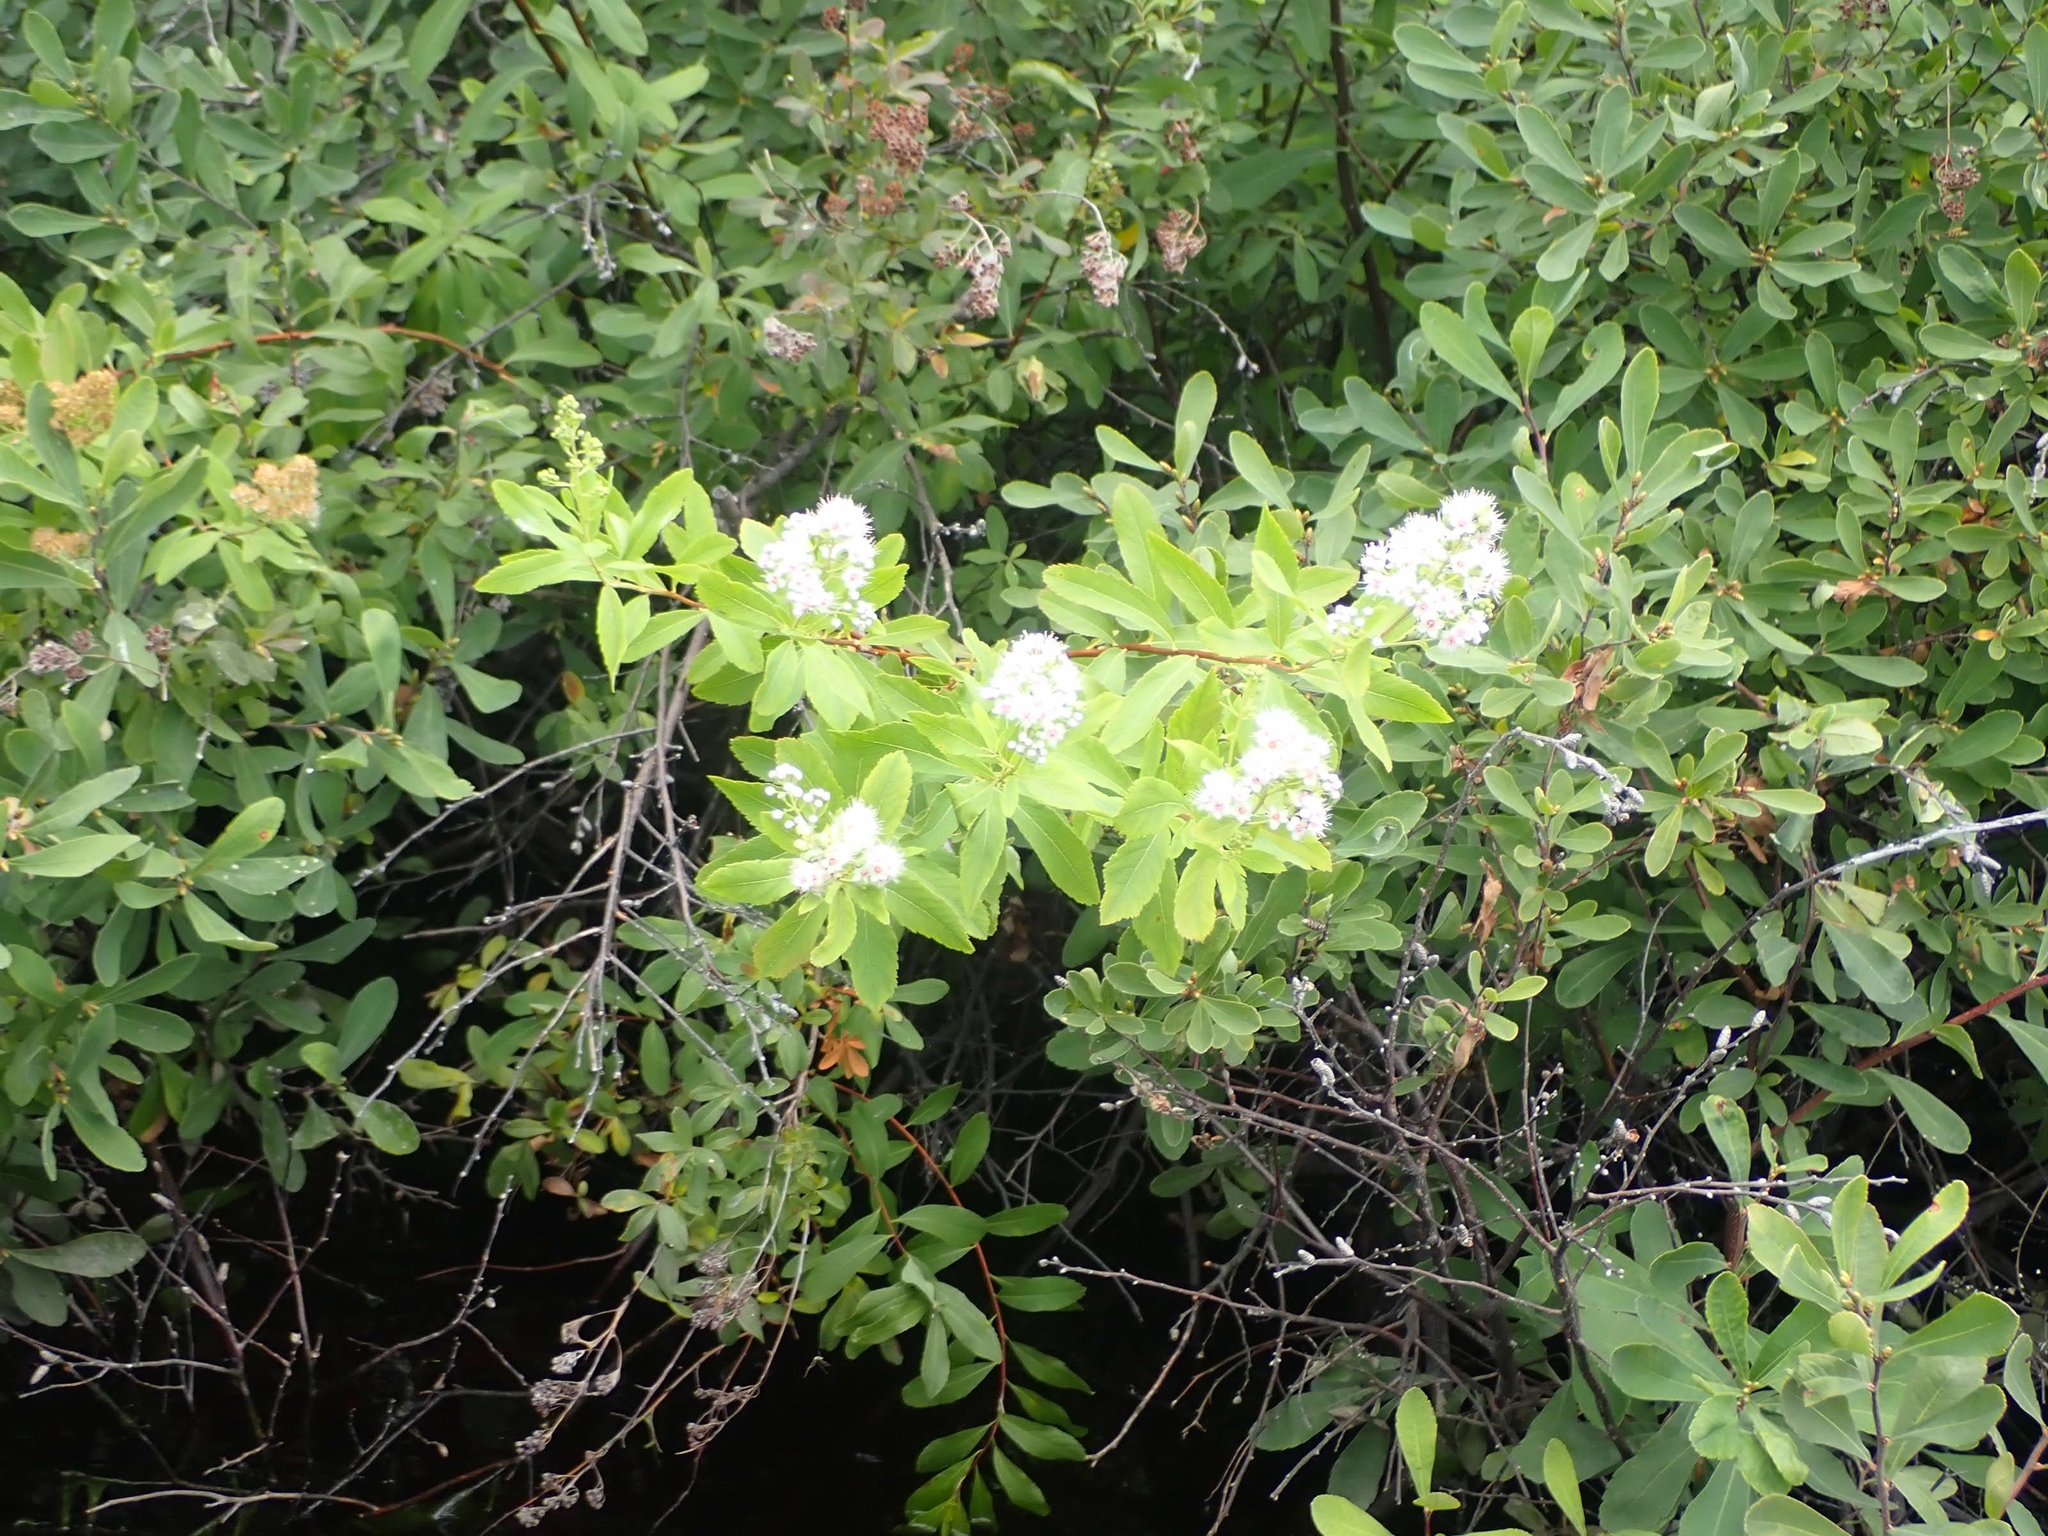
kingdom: Plantae
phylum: Tracheophyta
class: Magnoliopsida
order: Rosales
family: Rosaceae
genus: Spiraea
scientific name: Spiraea alba
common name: Pale bridewort
